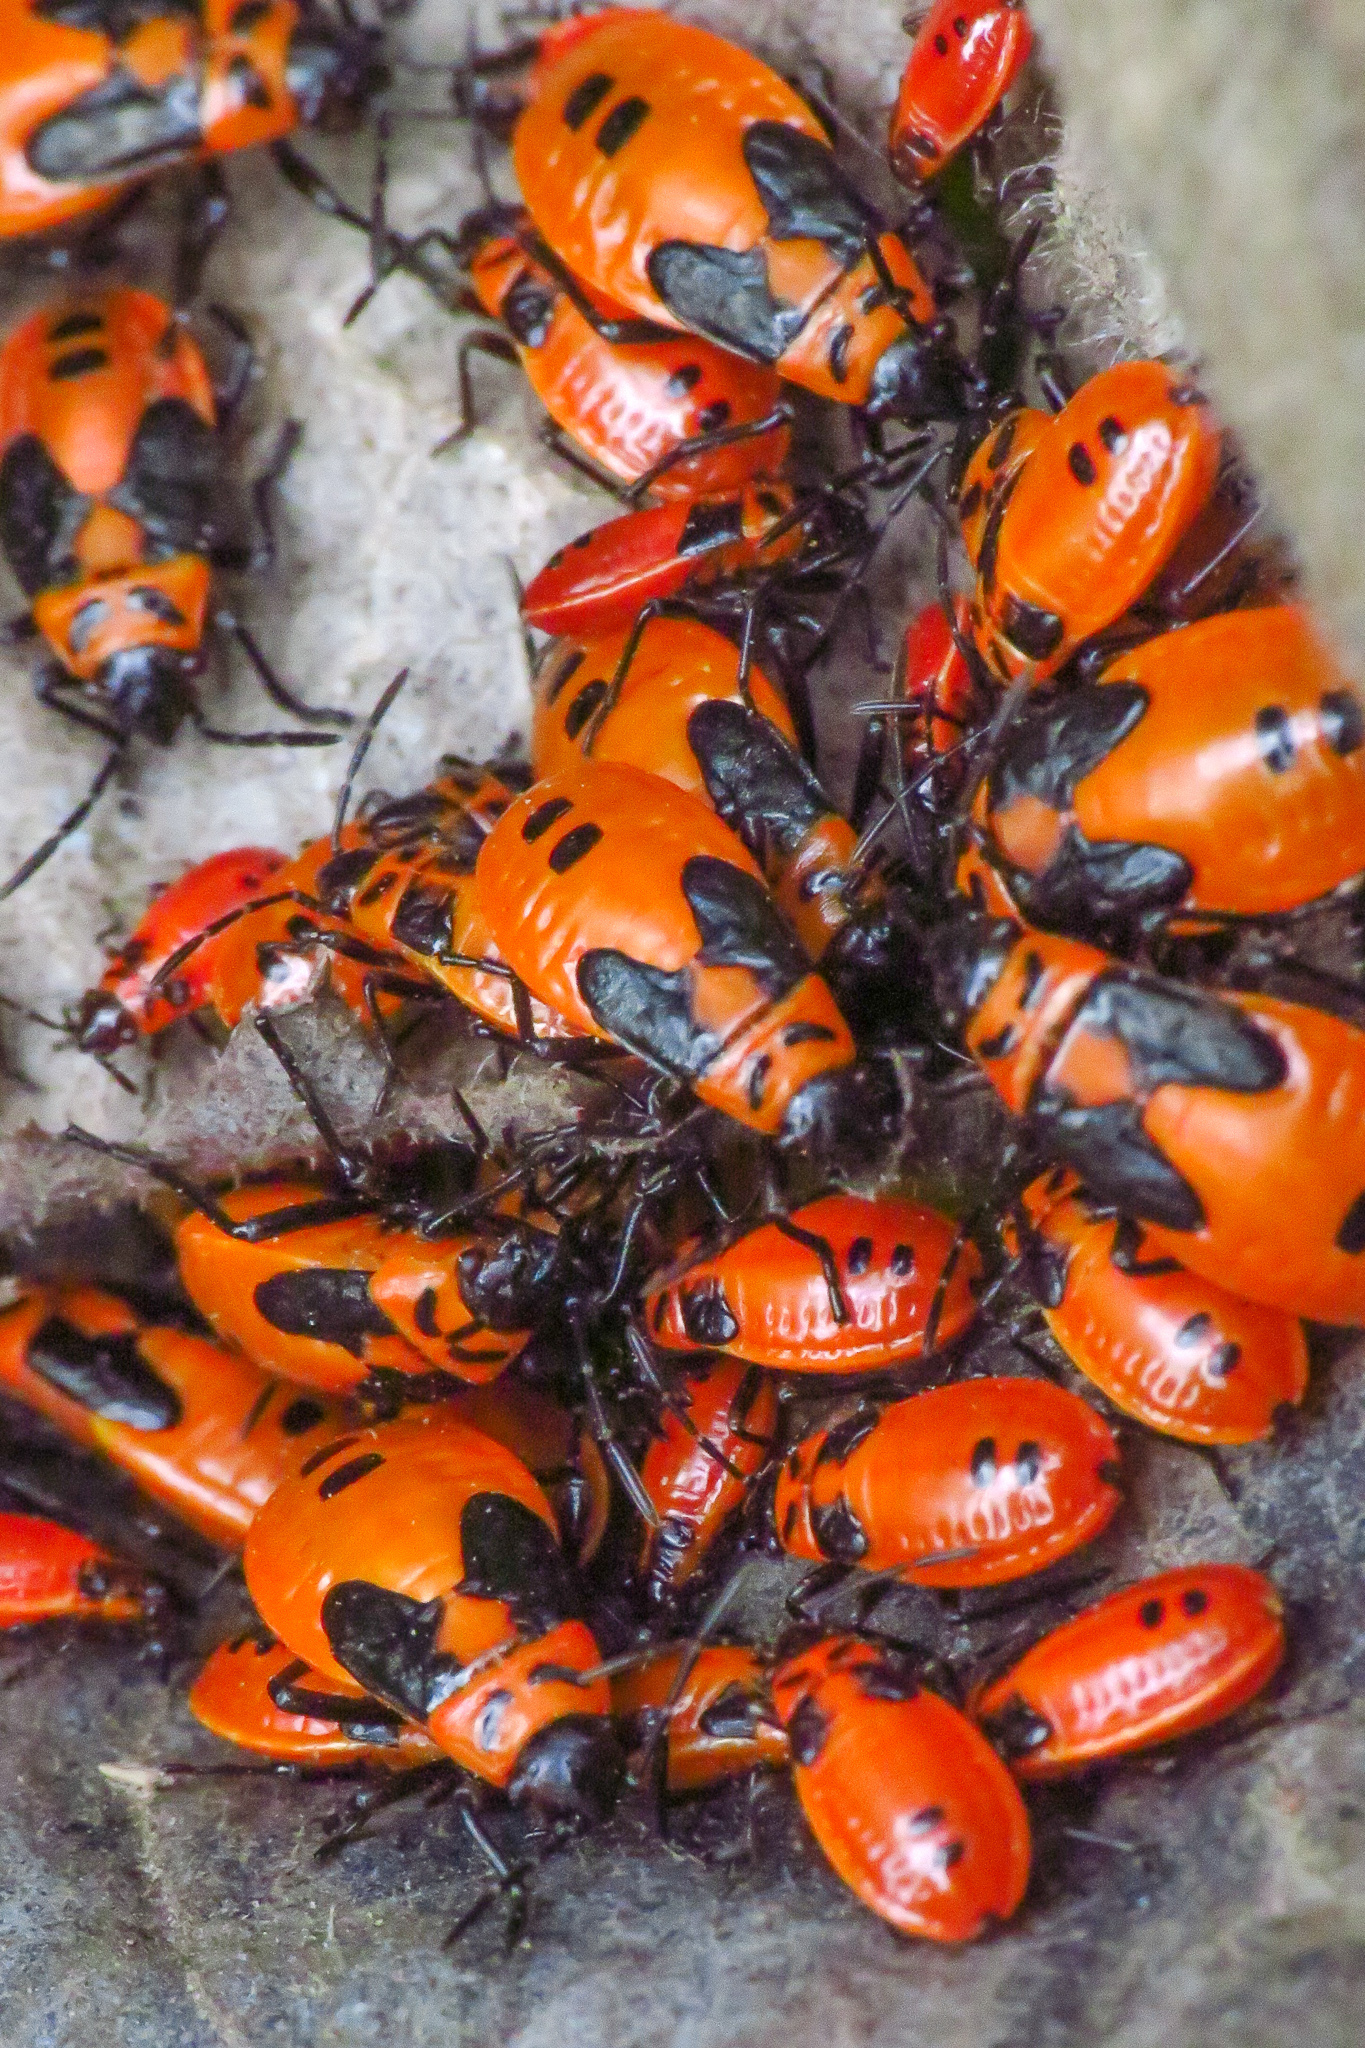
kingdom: Animalia
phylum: Arthropoda
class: Insecta
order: Hemiptera
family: Lygaeidae
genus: Lygaeus
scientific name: Lygaeus turcicus
